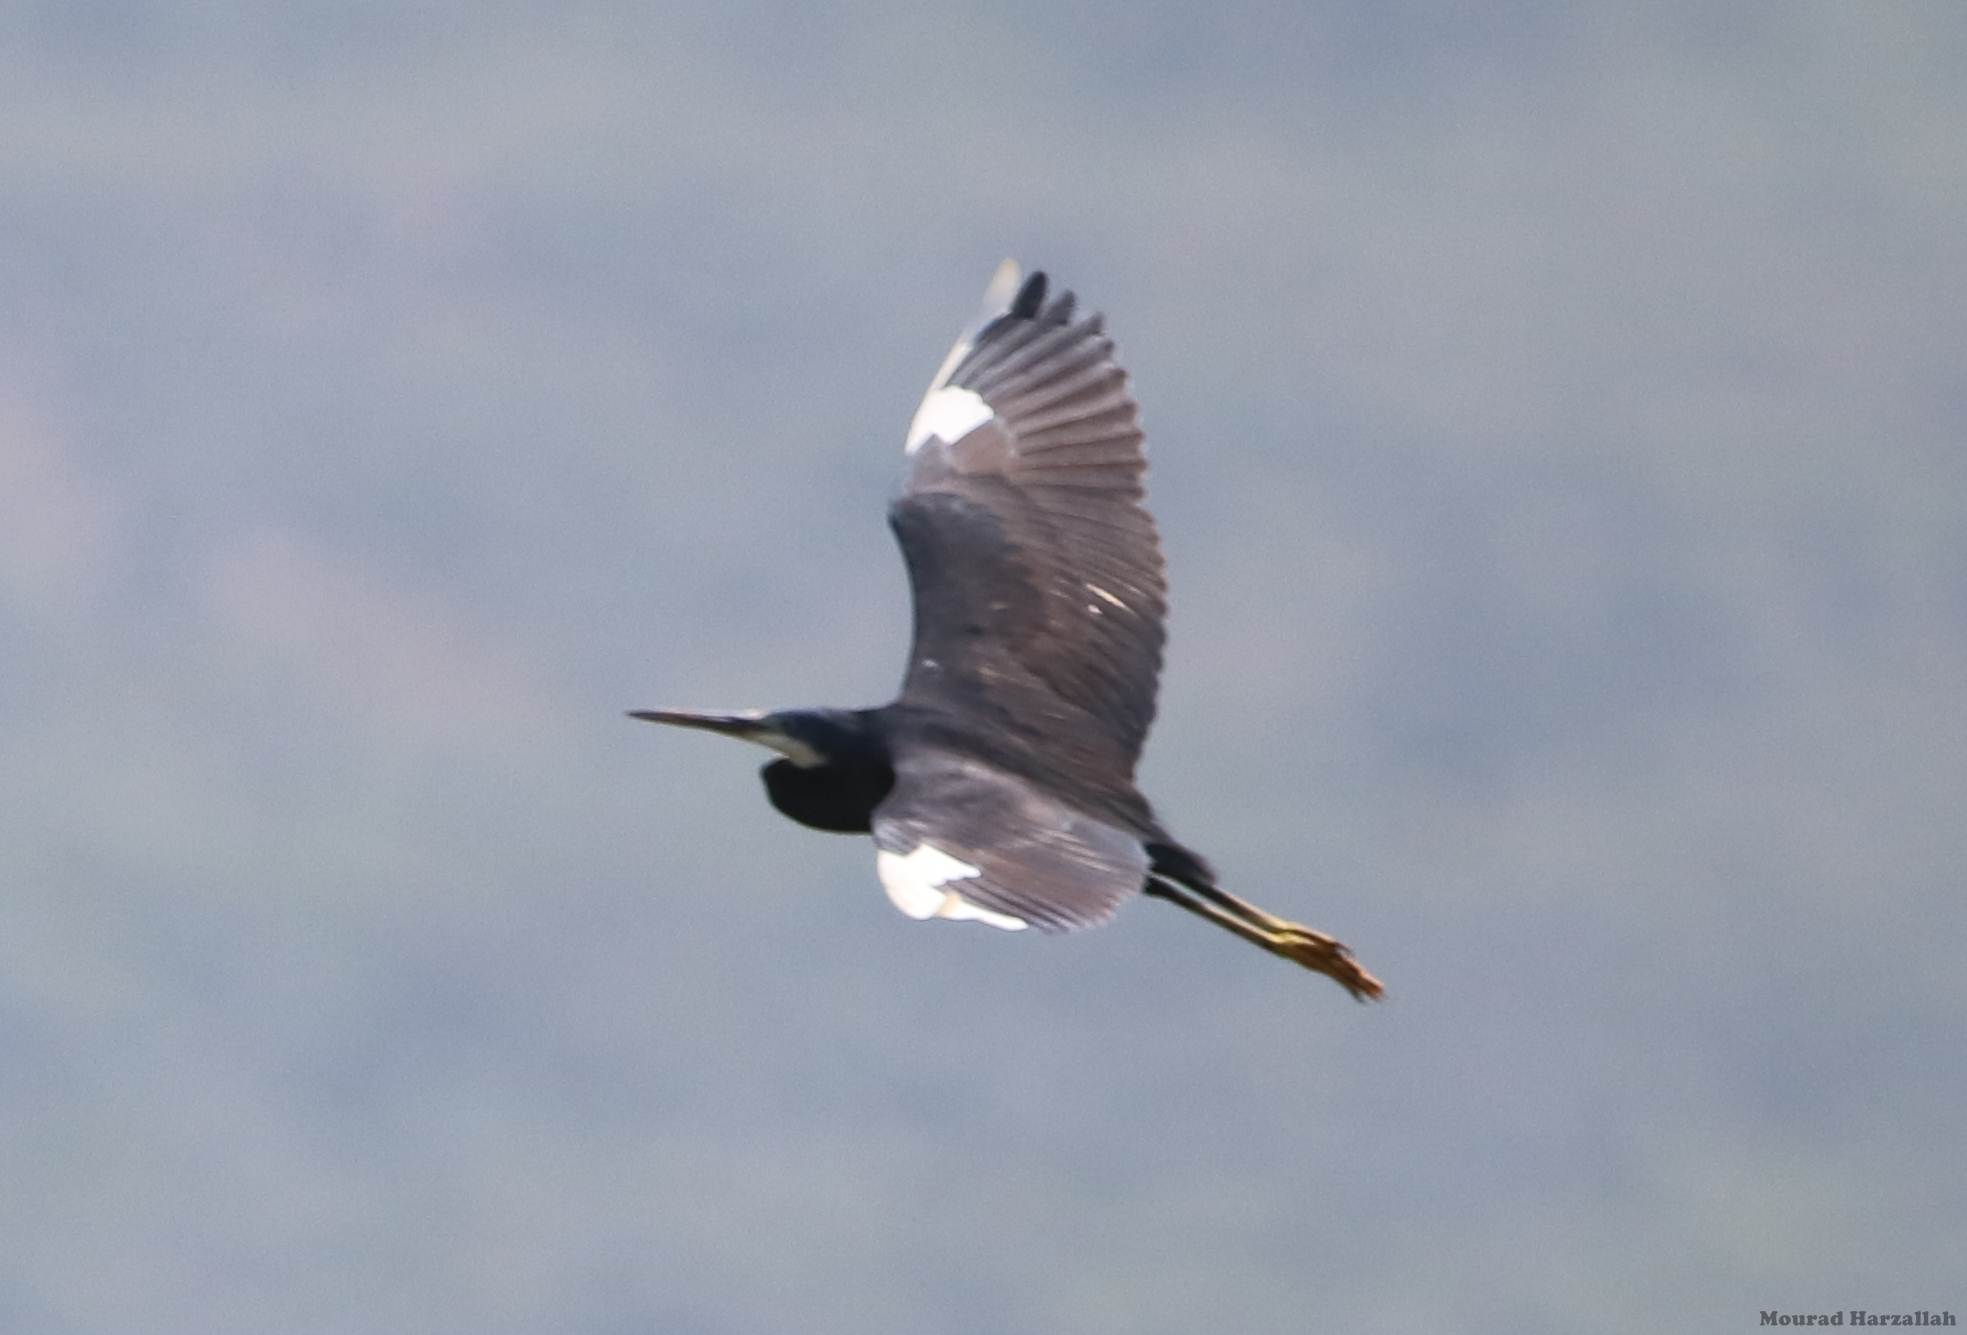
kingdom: Animalia
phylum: Chordata
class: Aves
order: Pelecaniformes
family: Ardeidae
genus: Egretta
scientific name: Egretta gularis
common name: Western reef-heron
